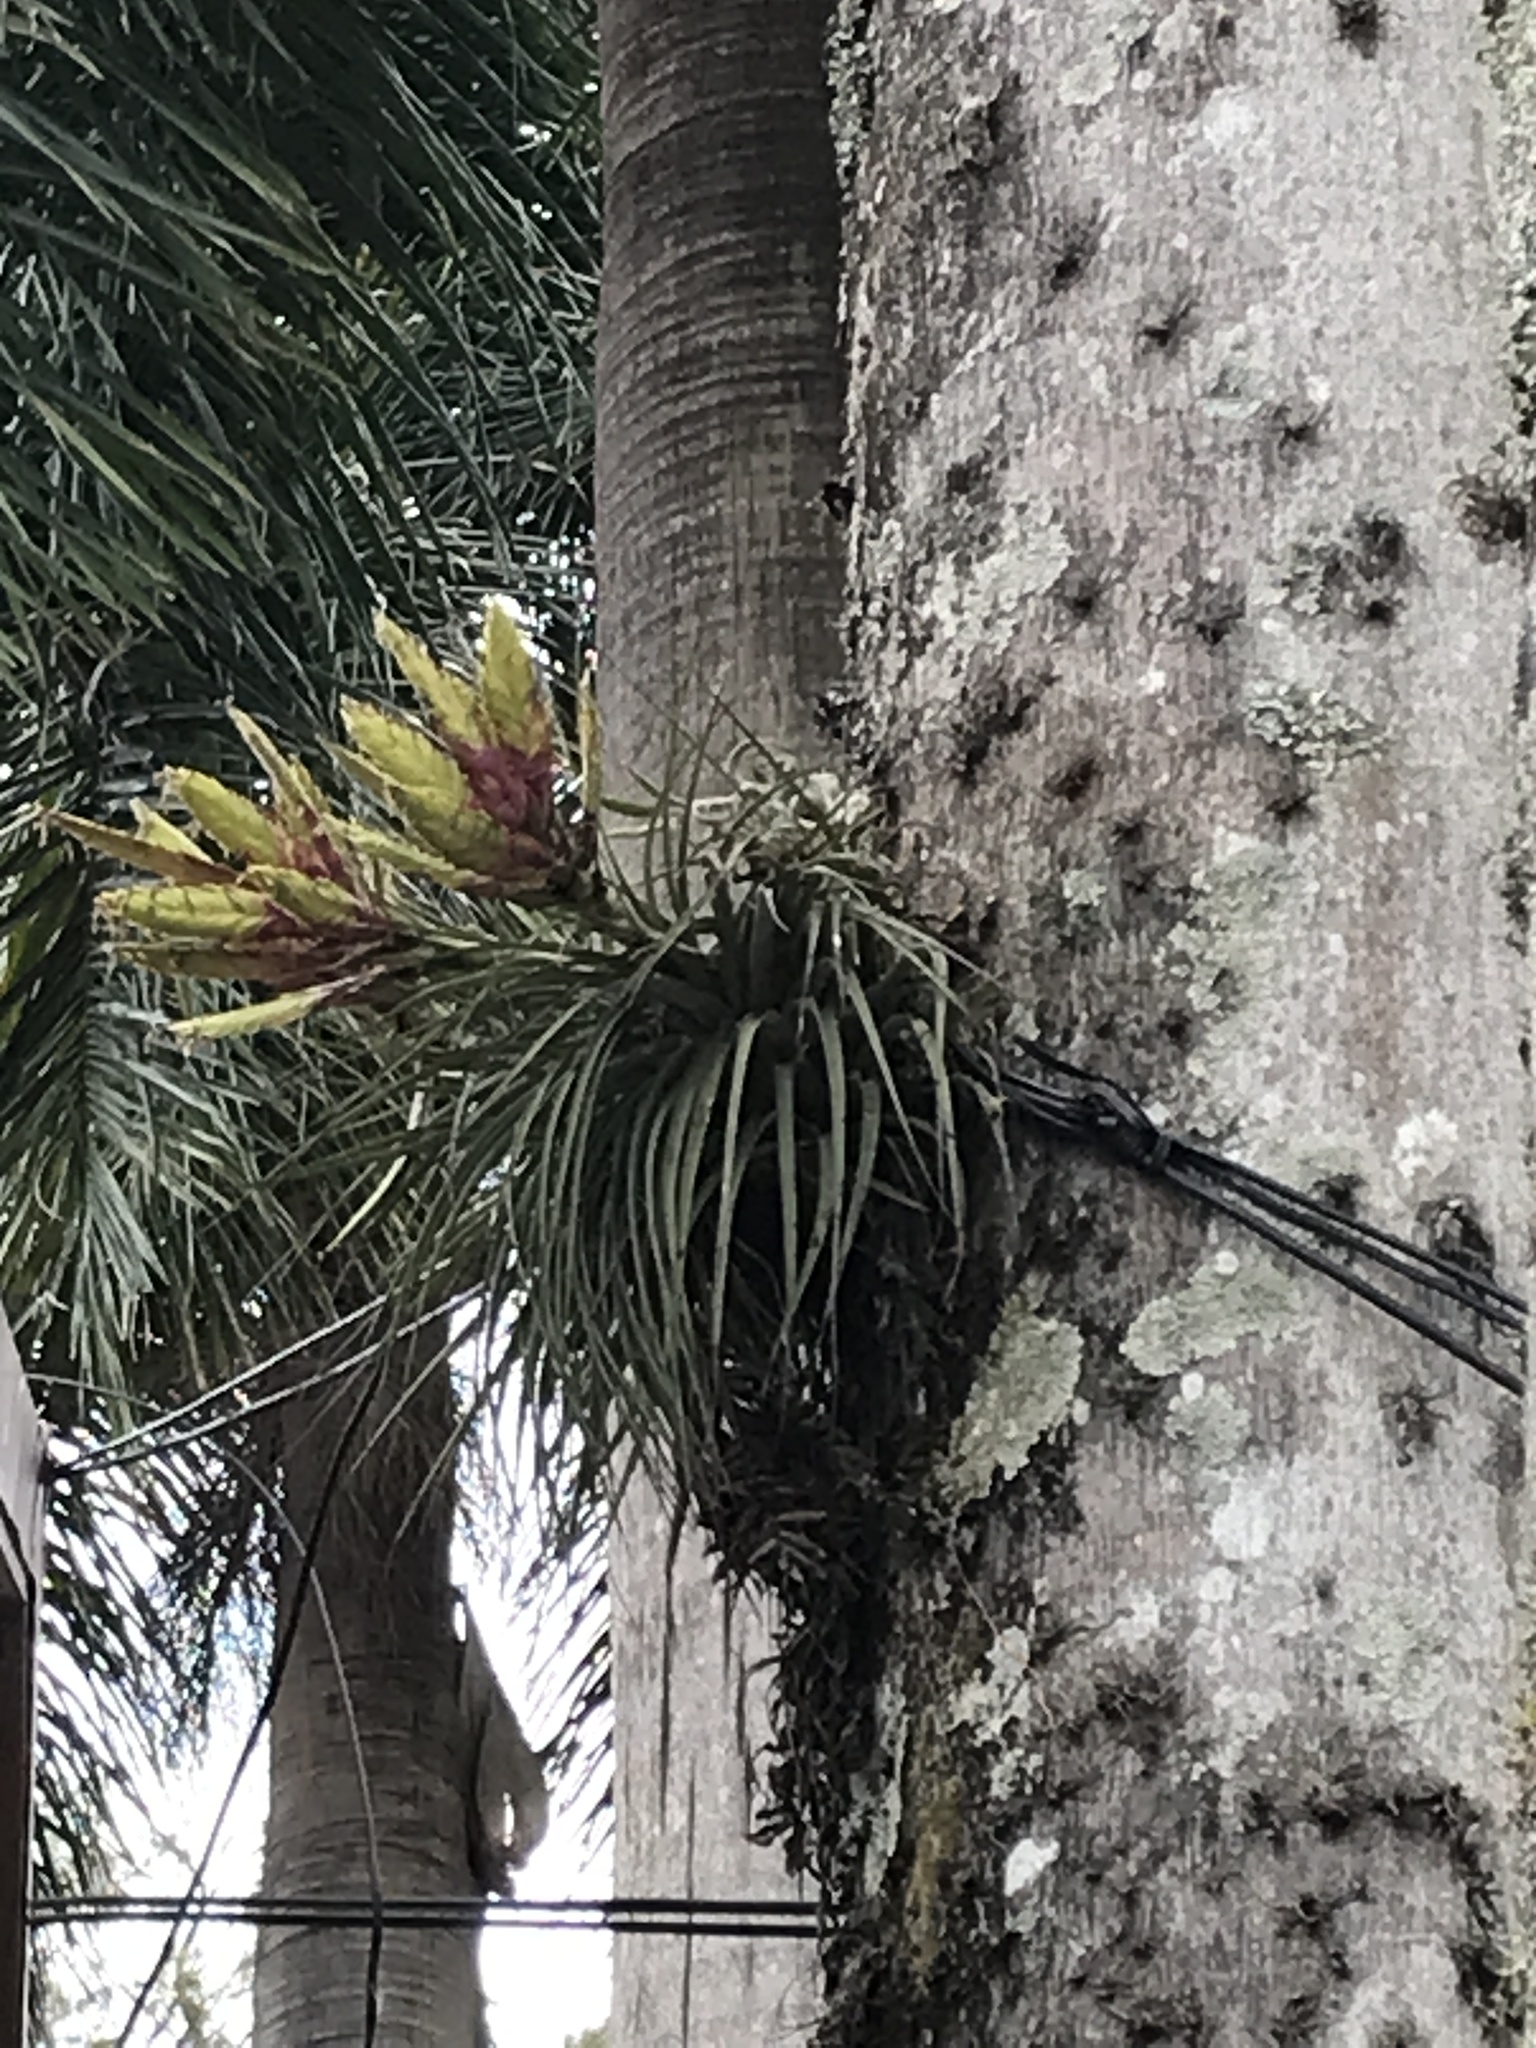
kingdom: Plantae
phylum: Tracheophyta
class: Liliopsida
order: Poales
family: Bromeliaceae
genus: Tillandsia
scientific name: Tillandsia fasciculata
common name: Giant airplant
